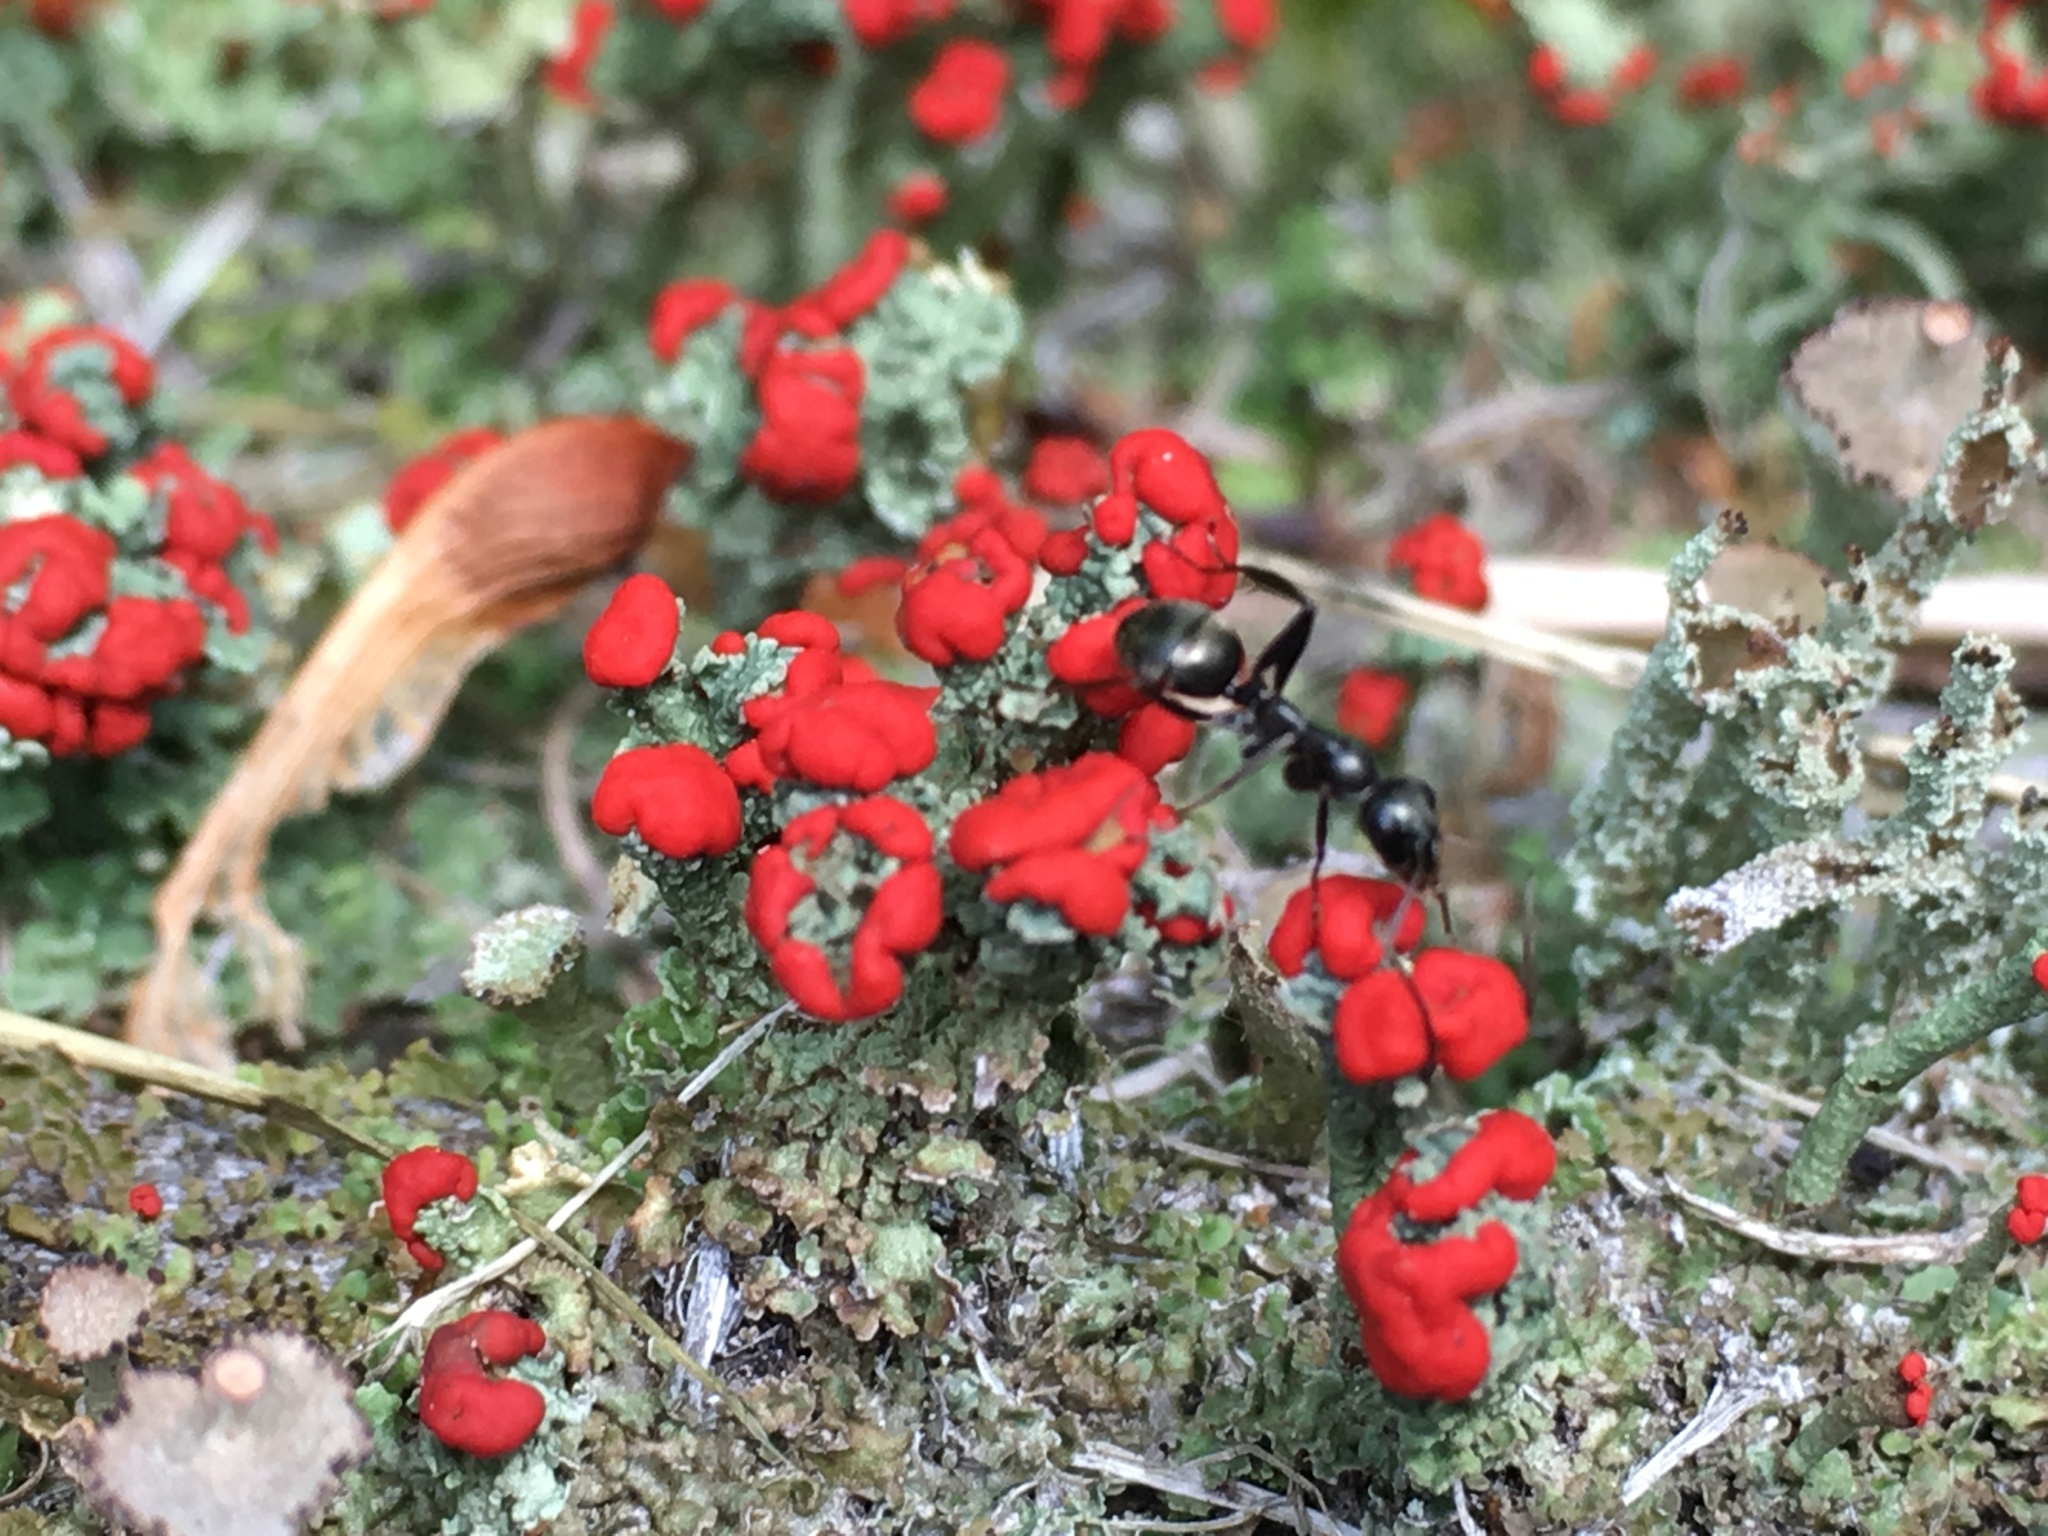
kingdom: Animalia
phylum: Arthropoda
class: Insecta
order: Hymenoptera
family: Formicidae
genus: Formica
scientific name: Formica
